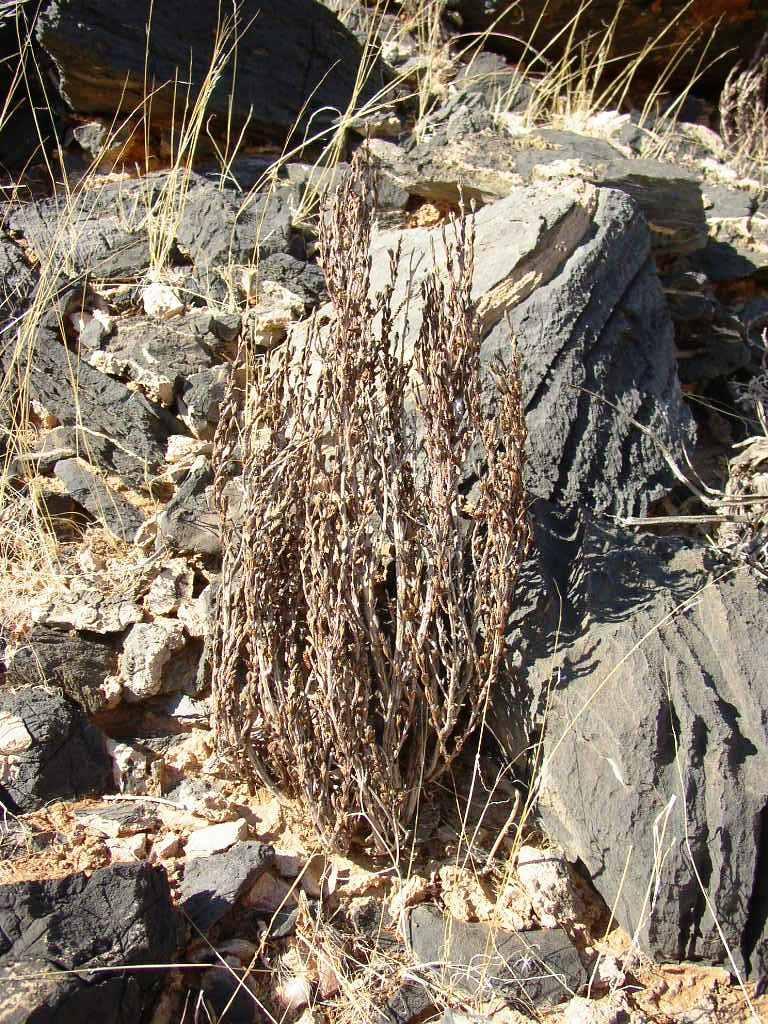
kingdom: Plantae
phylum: Tracheophyta
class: Magnoliopsida
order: Gunnerales
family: Myrothamnaceae
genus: Myrothamnus
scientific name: Myrothamnus flabellifolius
